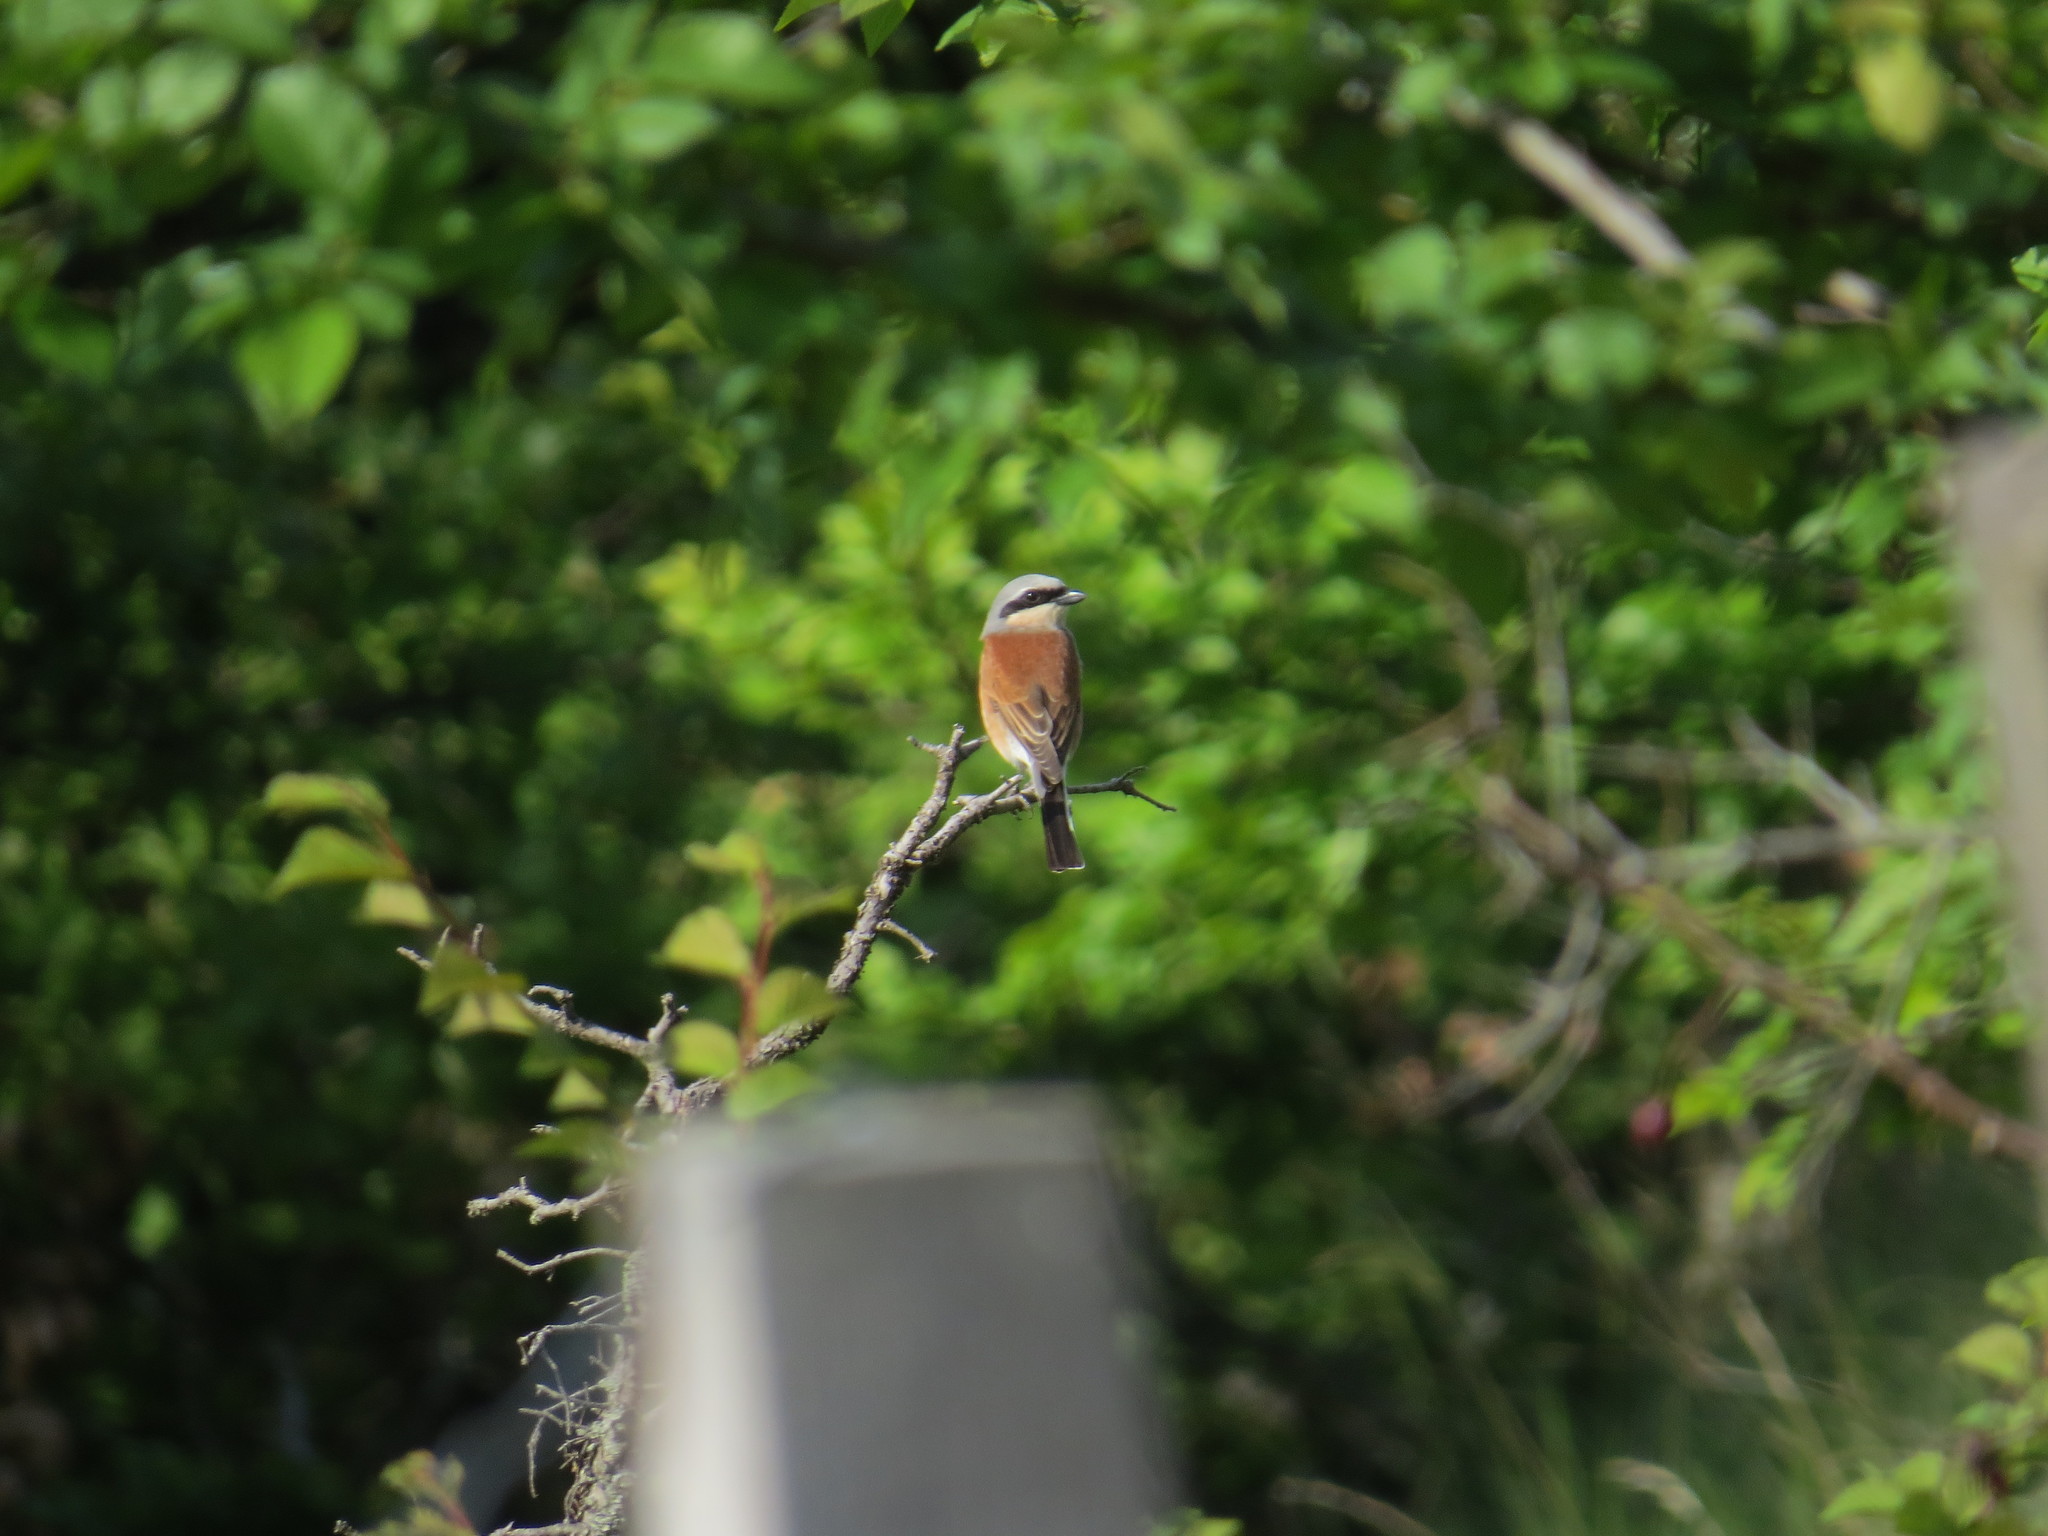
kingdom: Animalia
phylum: Chordata
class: Aves
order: Passeriformes
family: Laniidae
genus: Lanius
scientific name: Lanius collurio
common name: Red-backed shrike
